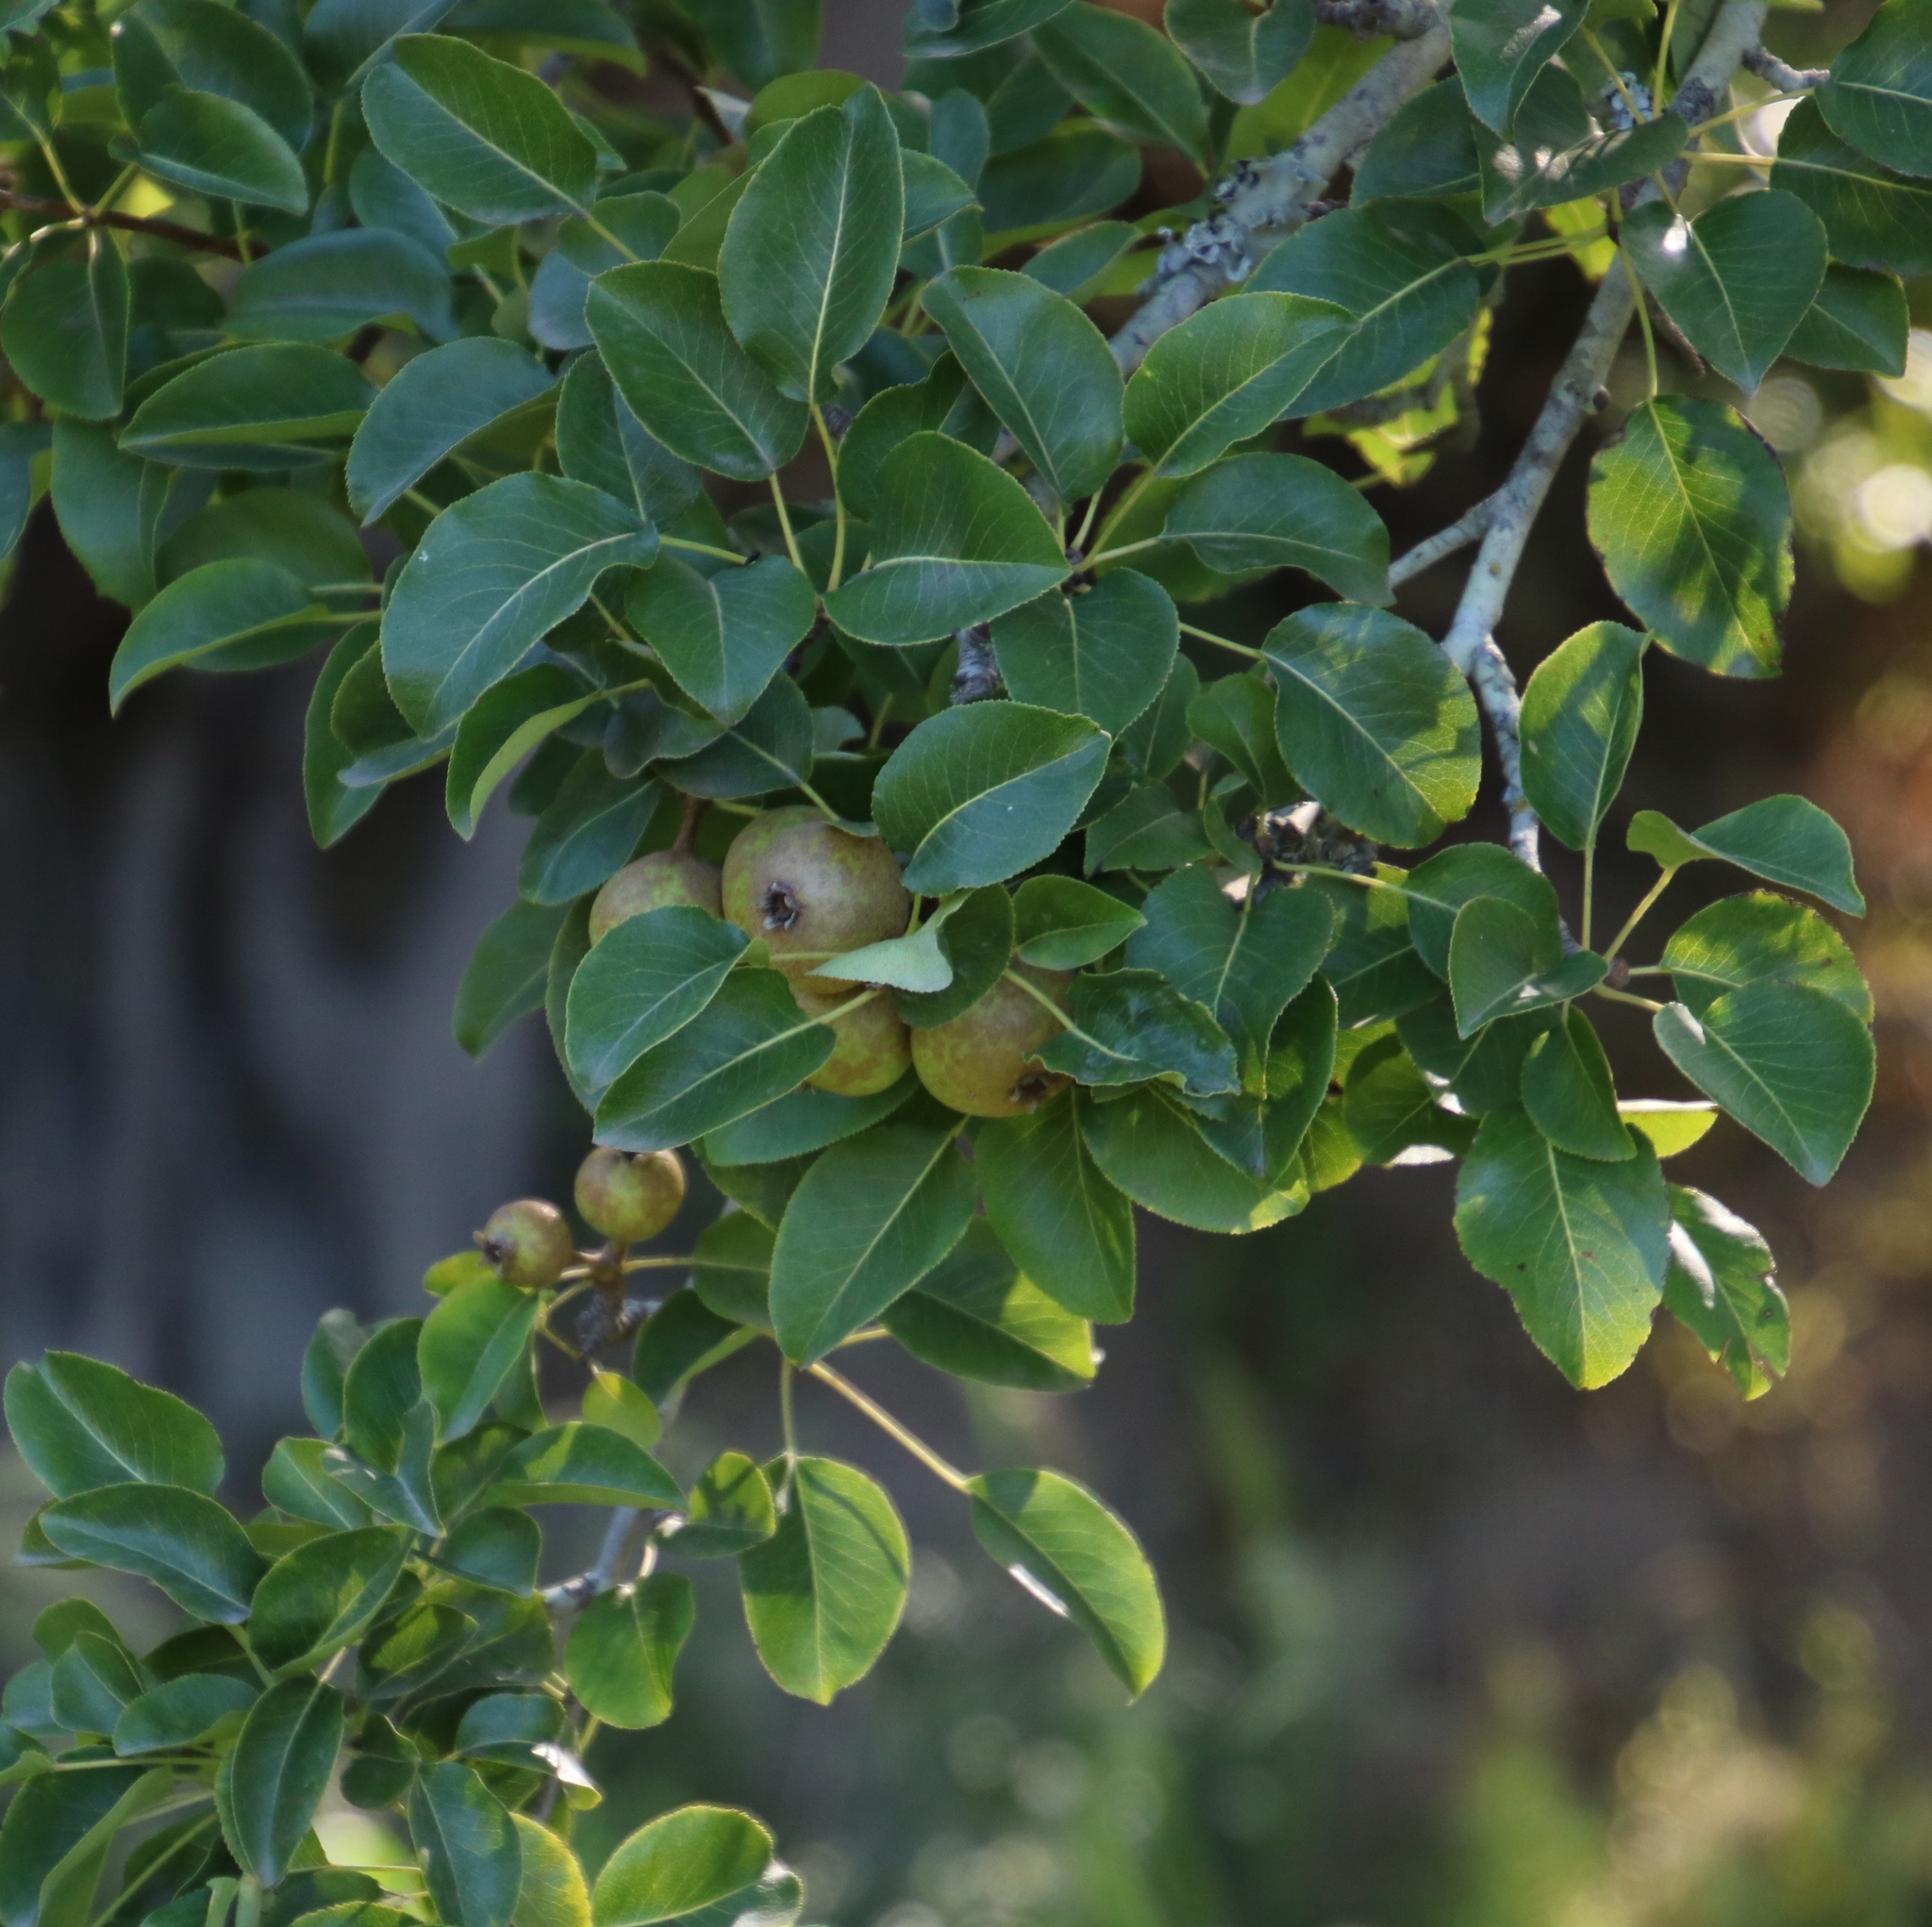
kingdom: Plantae
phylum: Tracheophyta
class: Magnoliopsida
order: Rosales
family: Rosaceae
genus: Malus
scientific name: Malus domestica
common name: Apple
